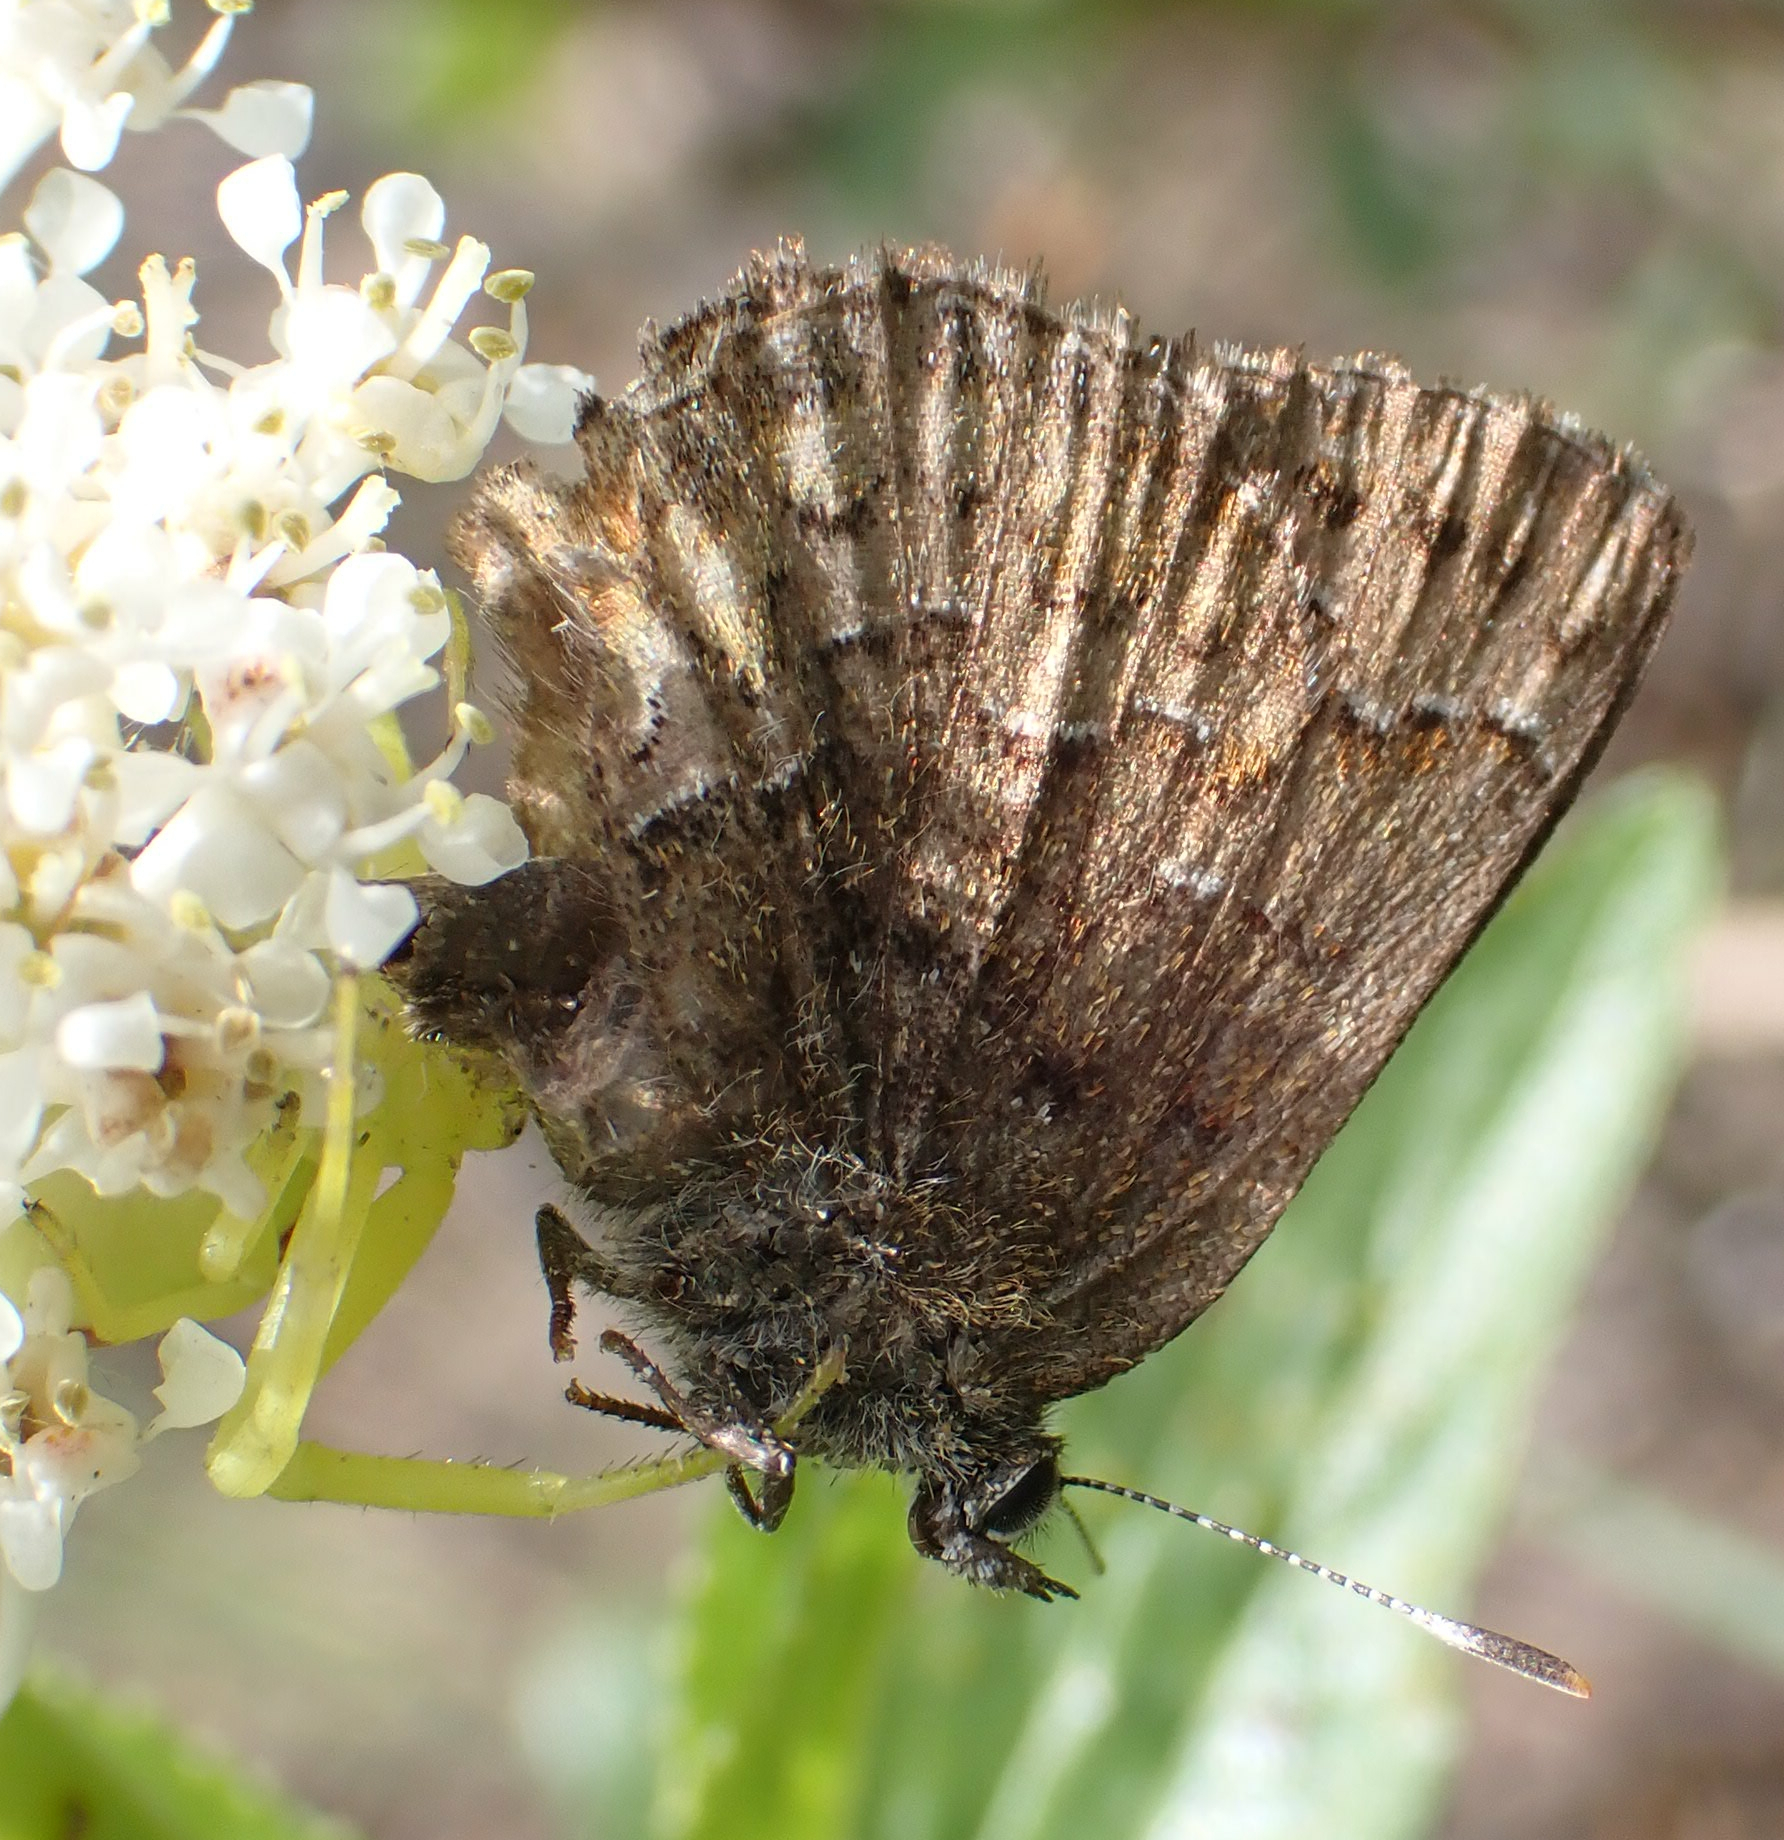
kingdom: Animalia
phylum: Arthropoda
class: Insecta
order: Lepidoptera
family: Lycaenidae
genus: Incisalia
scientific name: Incisalia niphon
